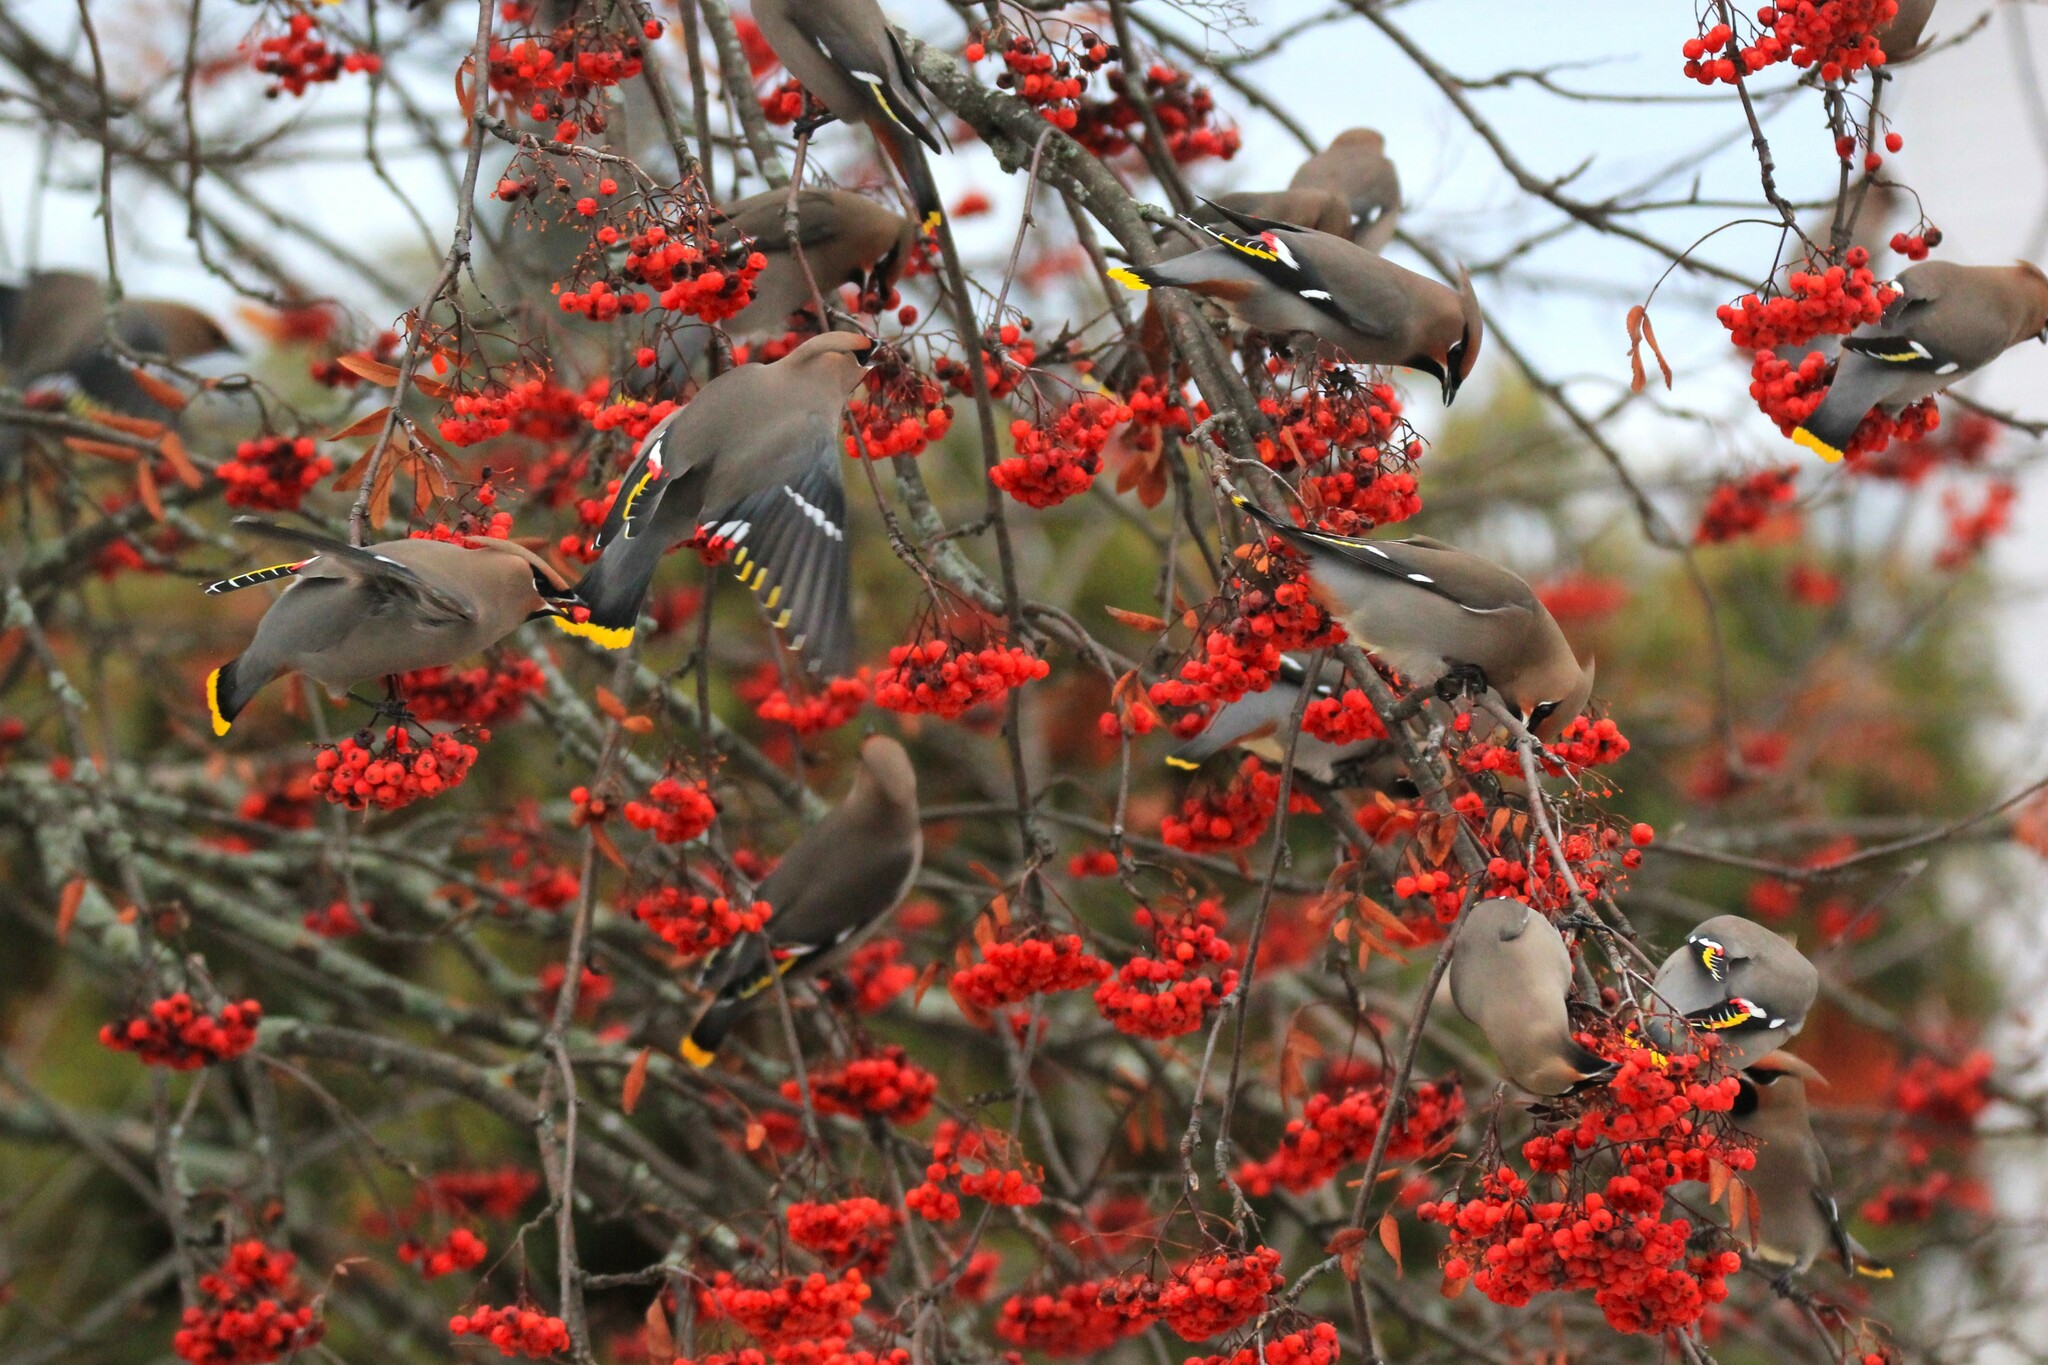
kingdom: Animalia
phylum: Chordata
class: Aves
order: Passeriformes
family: Bombycillidae
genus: Bombycilla
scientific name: Bombycilla garrulus
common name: Bohemian waxwing
